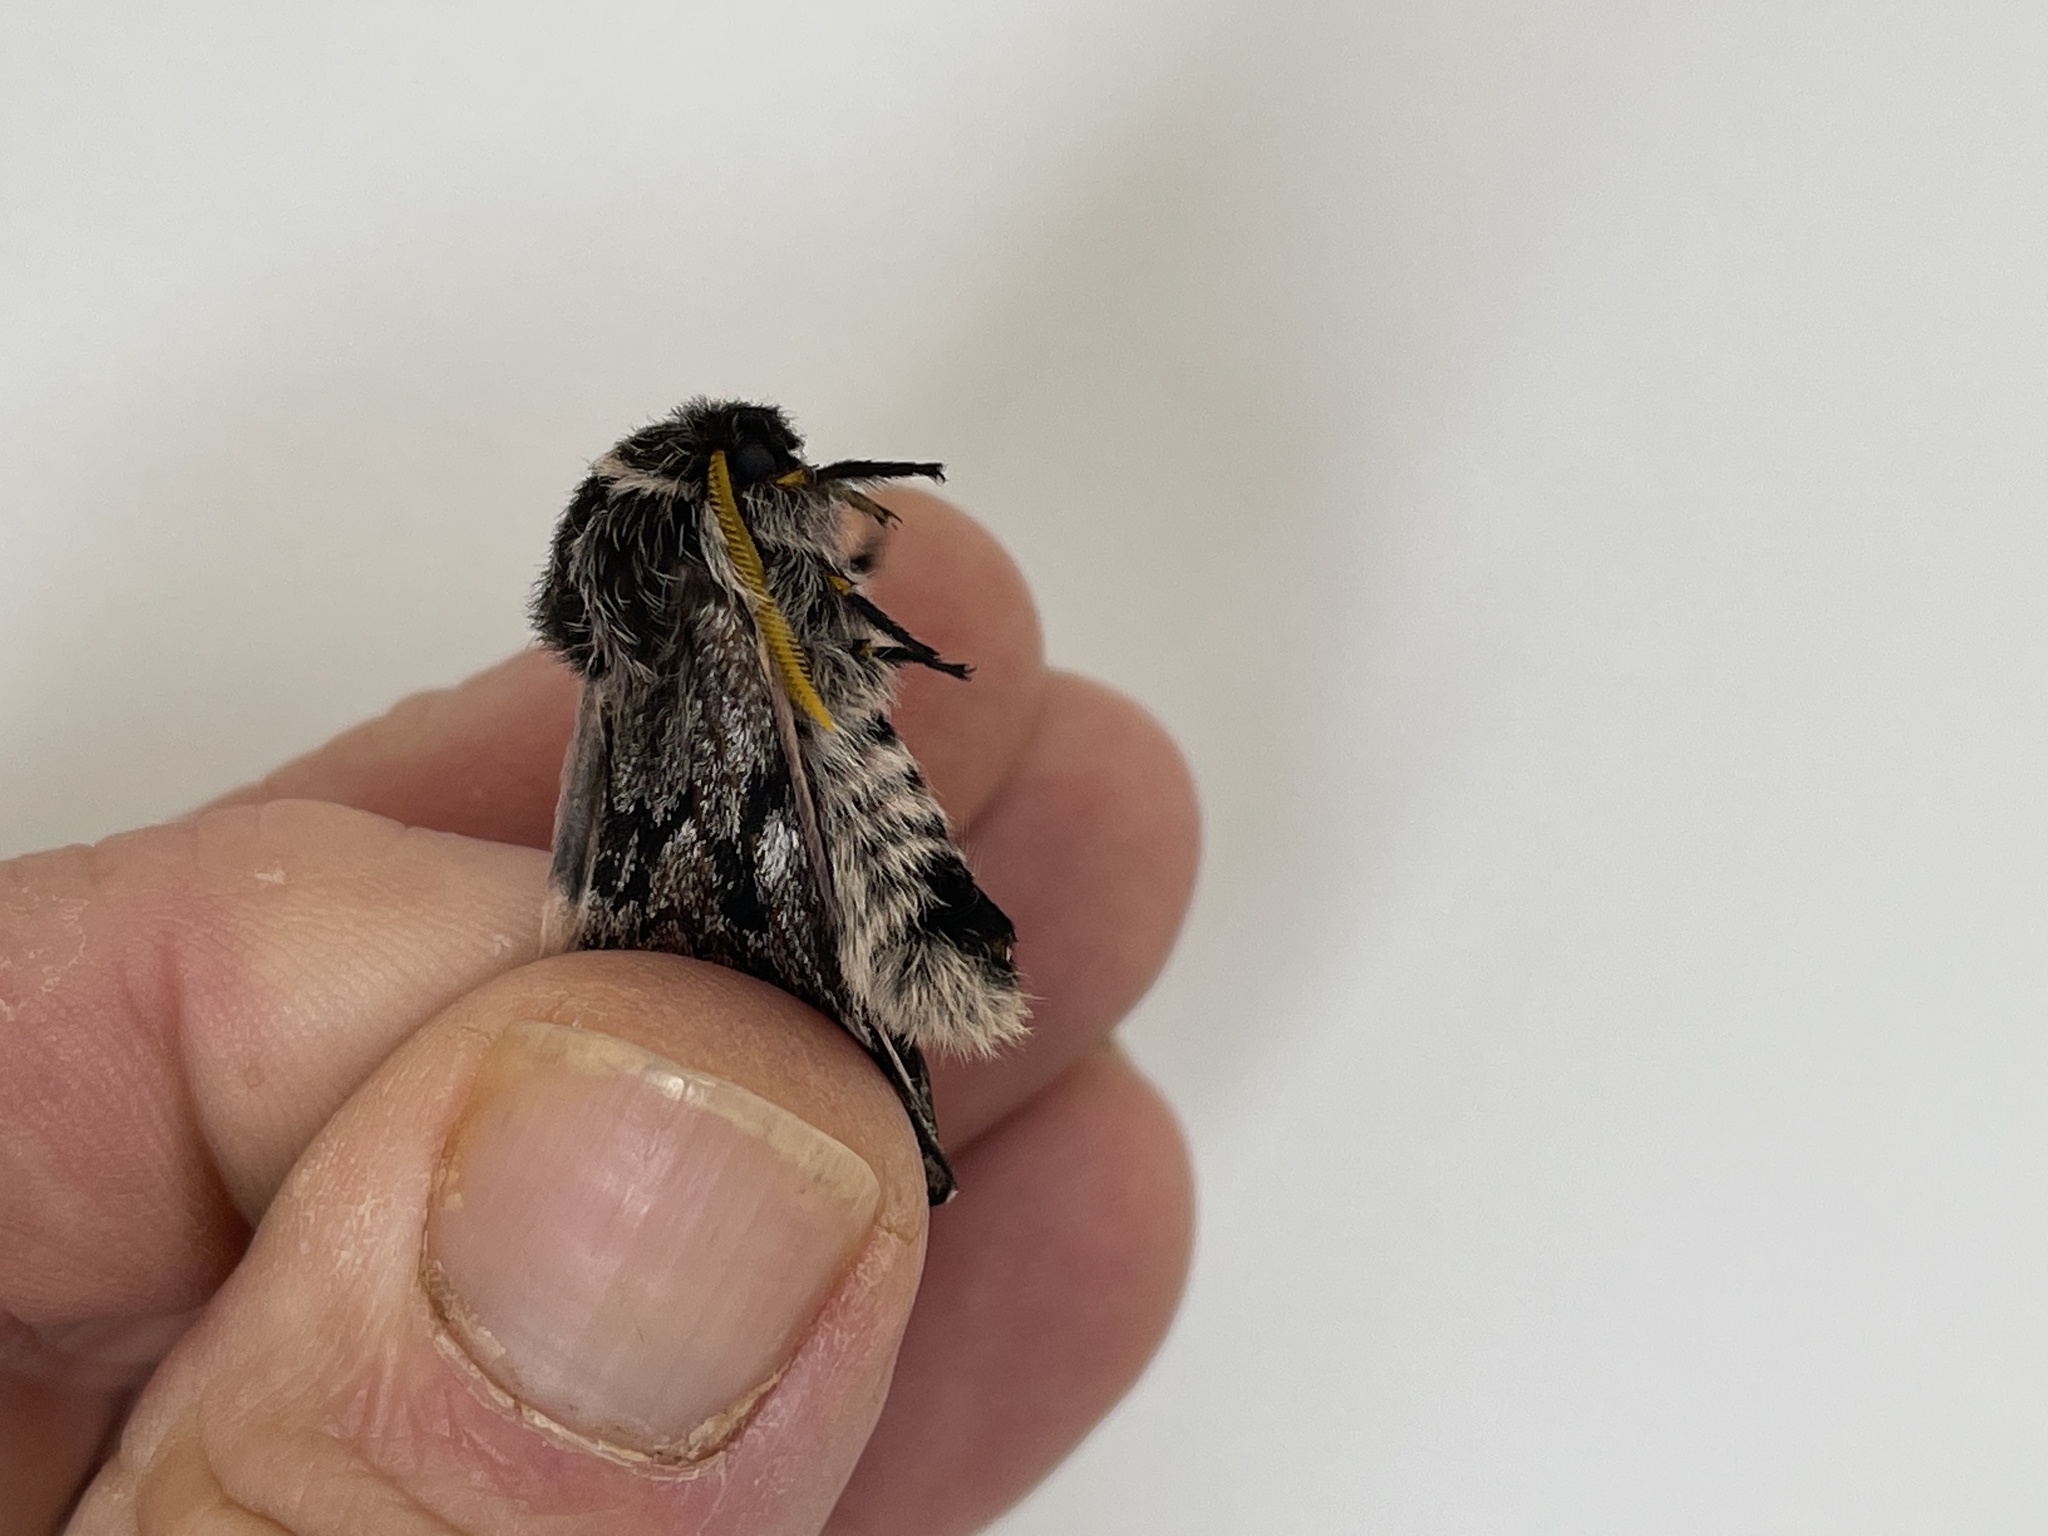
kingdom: Animalia
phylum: Arthropoda
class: Insecta
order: Lepidoptera
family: Saturniidae
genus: Coloradia
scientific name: Coloradia pandora
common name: Pandora pinemoth
